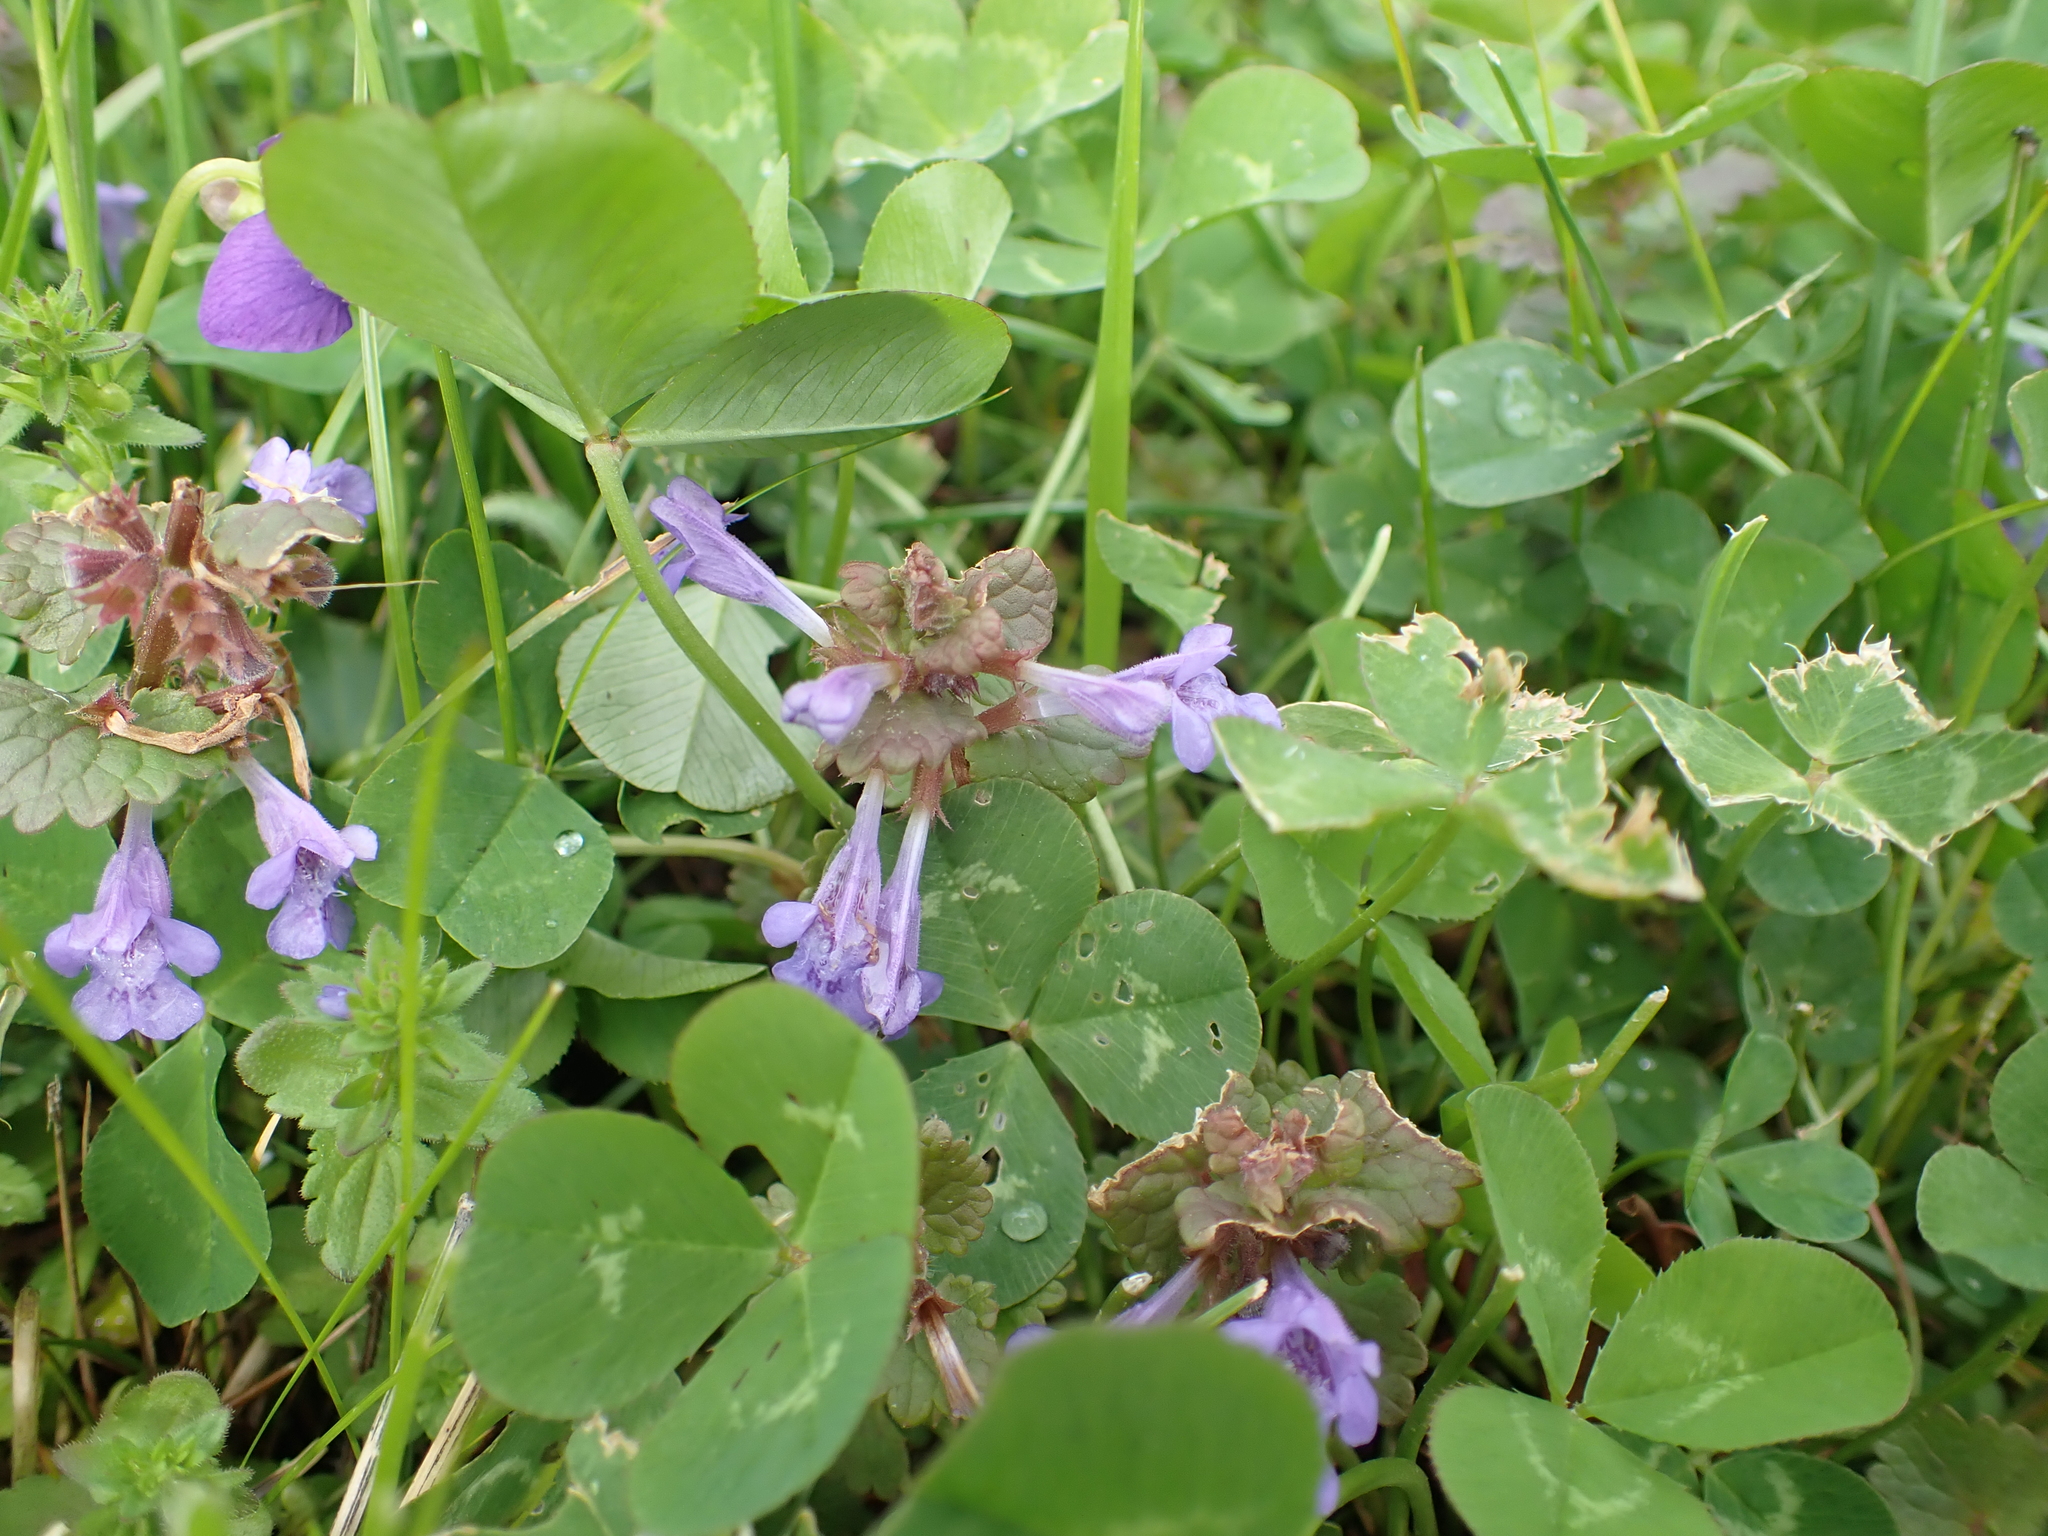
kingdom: Plantae
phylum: Tracheophyta
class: Magnoliopsida
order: Lamiales
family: Lamiaceae
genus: Glechoma
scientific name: Glechoma hederacea
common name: Ground ivy
